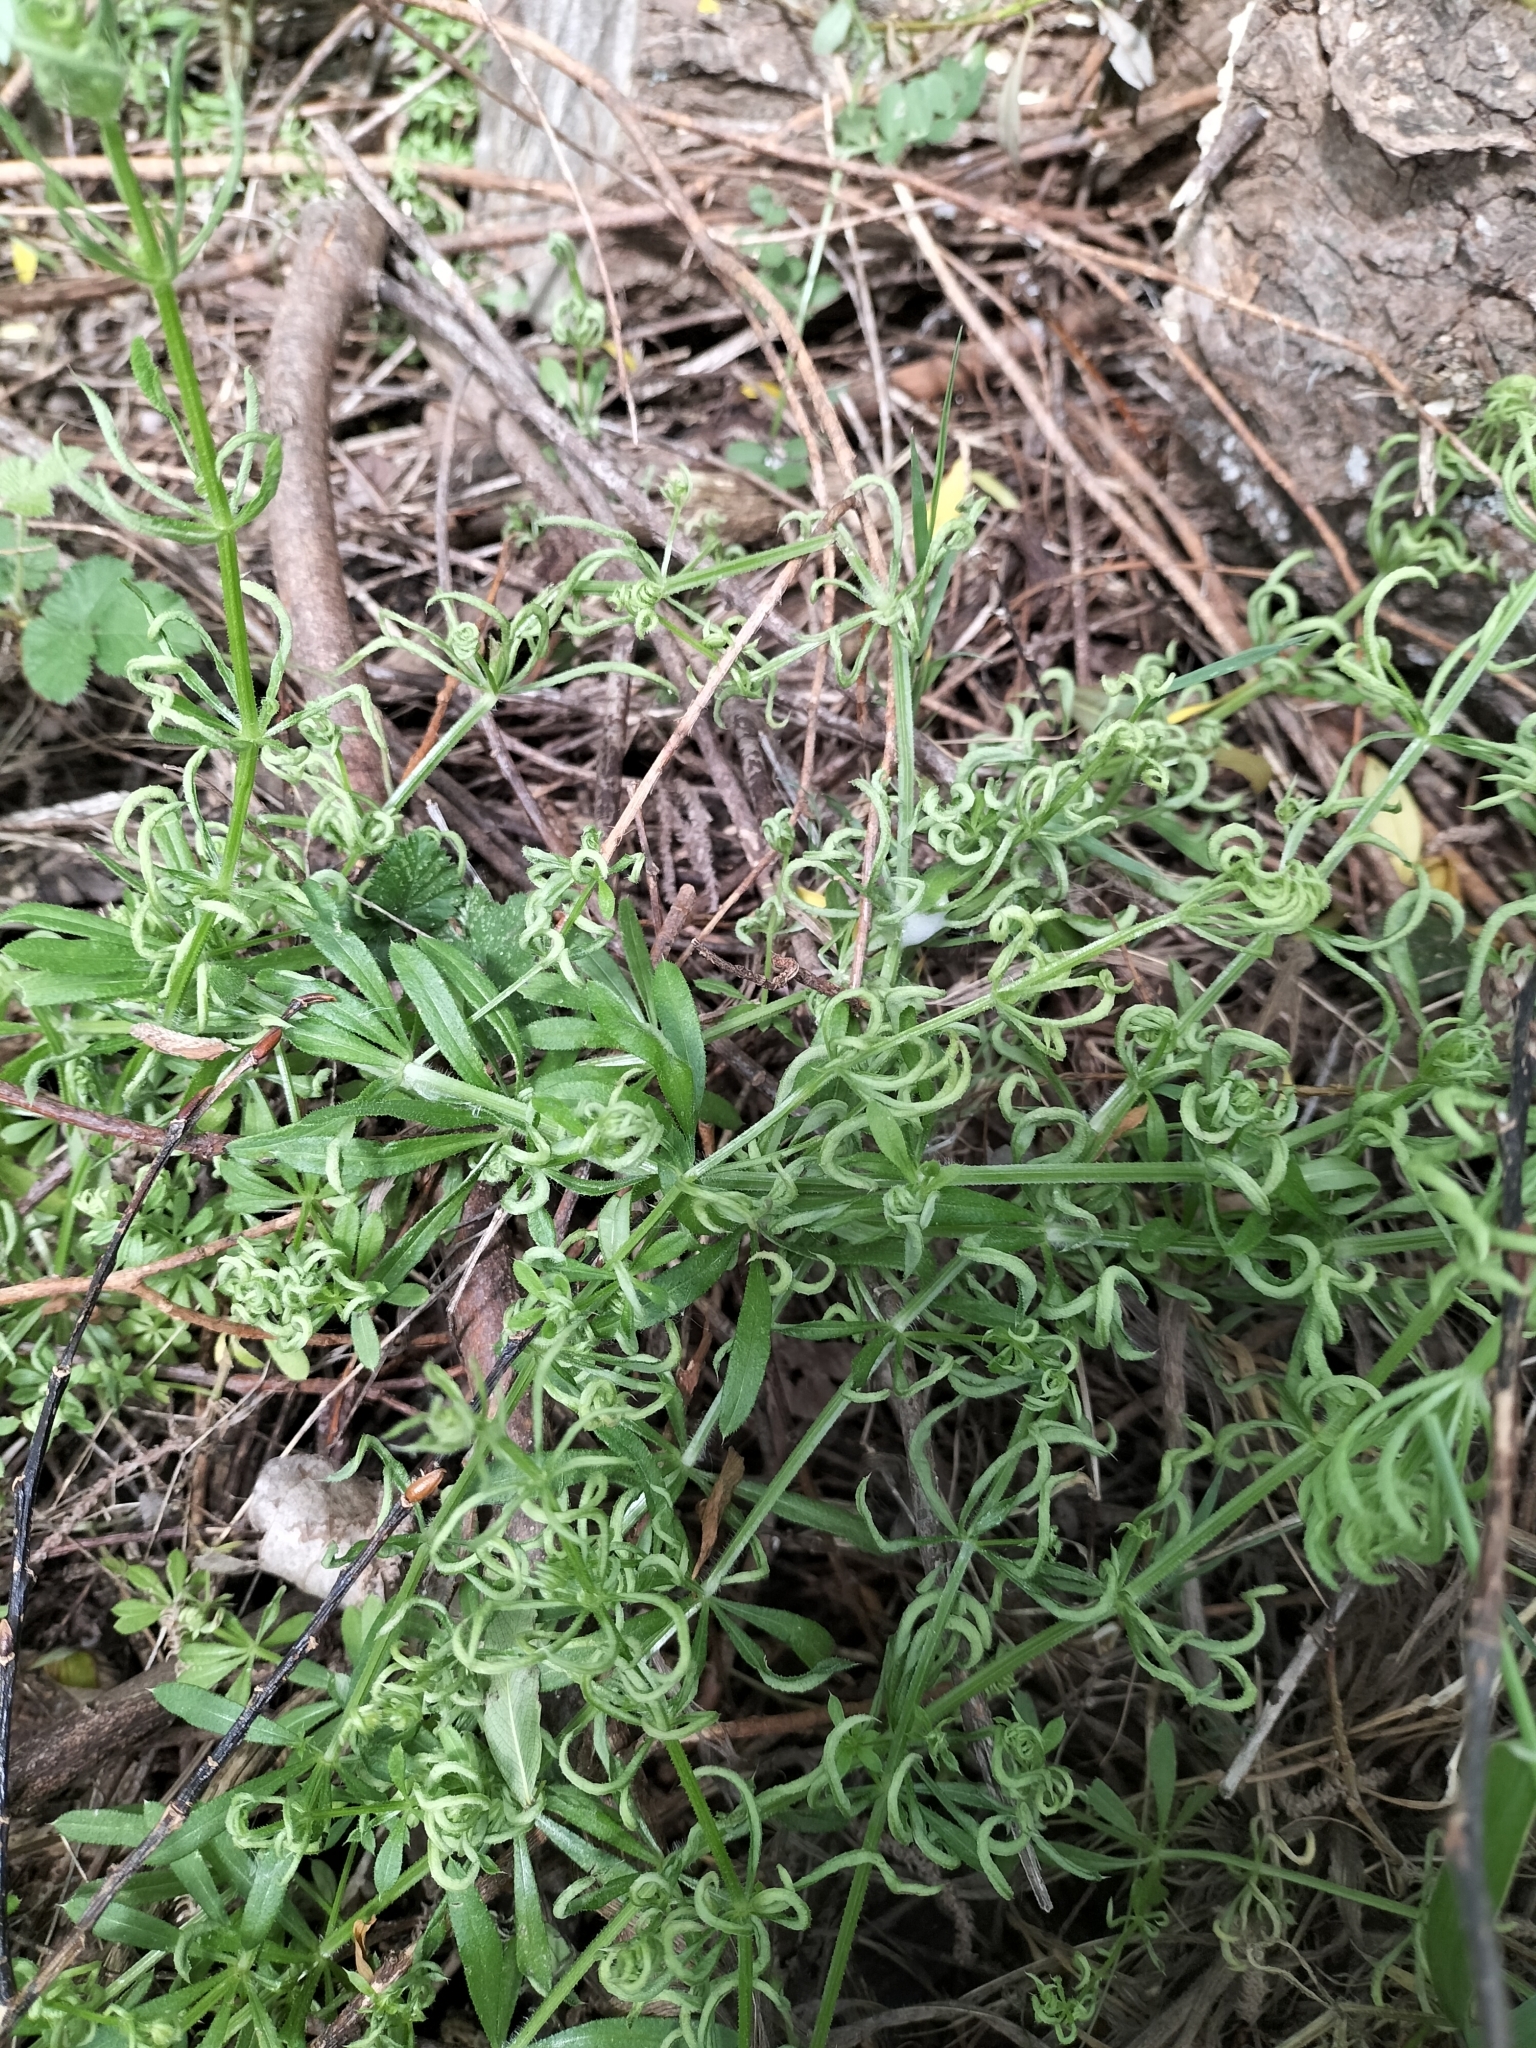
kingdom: Animalia
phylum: Arthropoda
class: Arachnida
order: Trombidiformes
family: Eriophyidae
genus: Cecidophyes
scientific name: Cecidophyes rouhollahi
